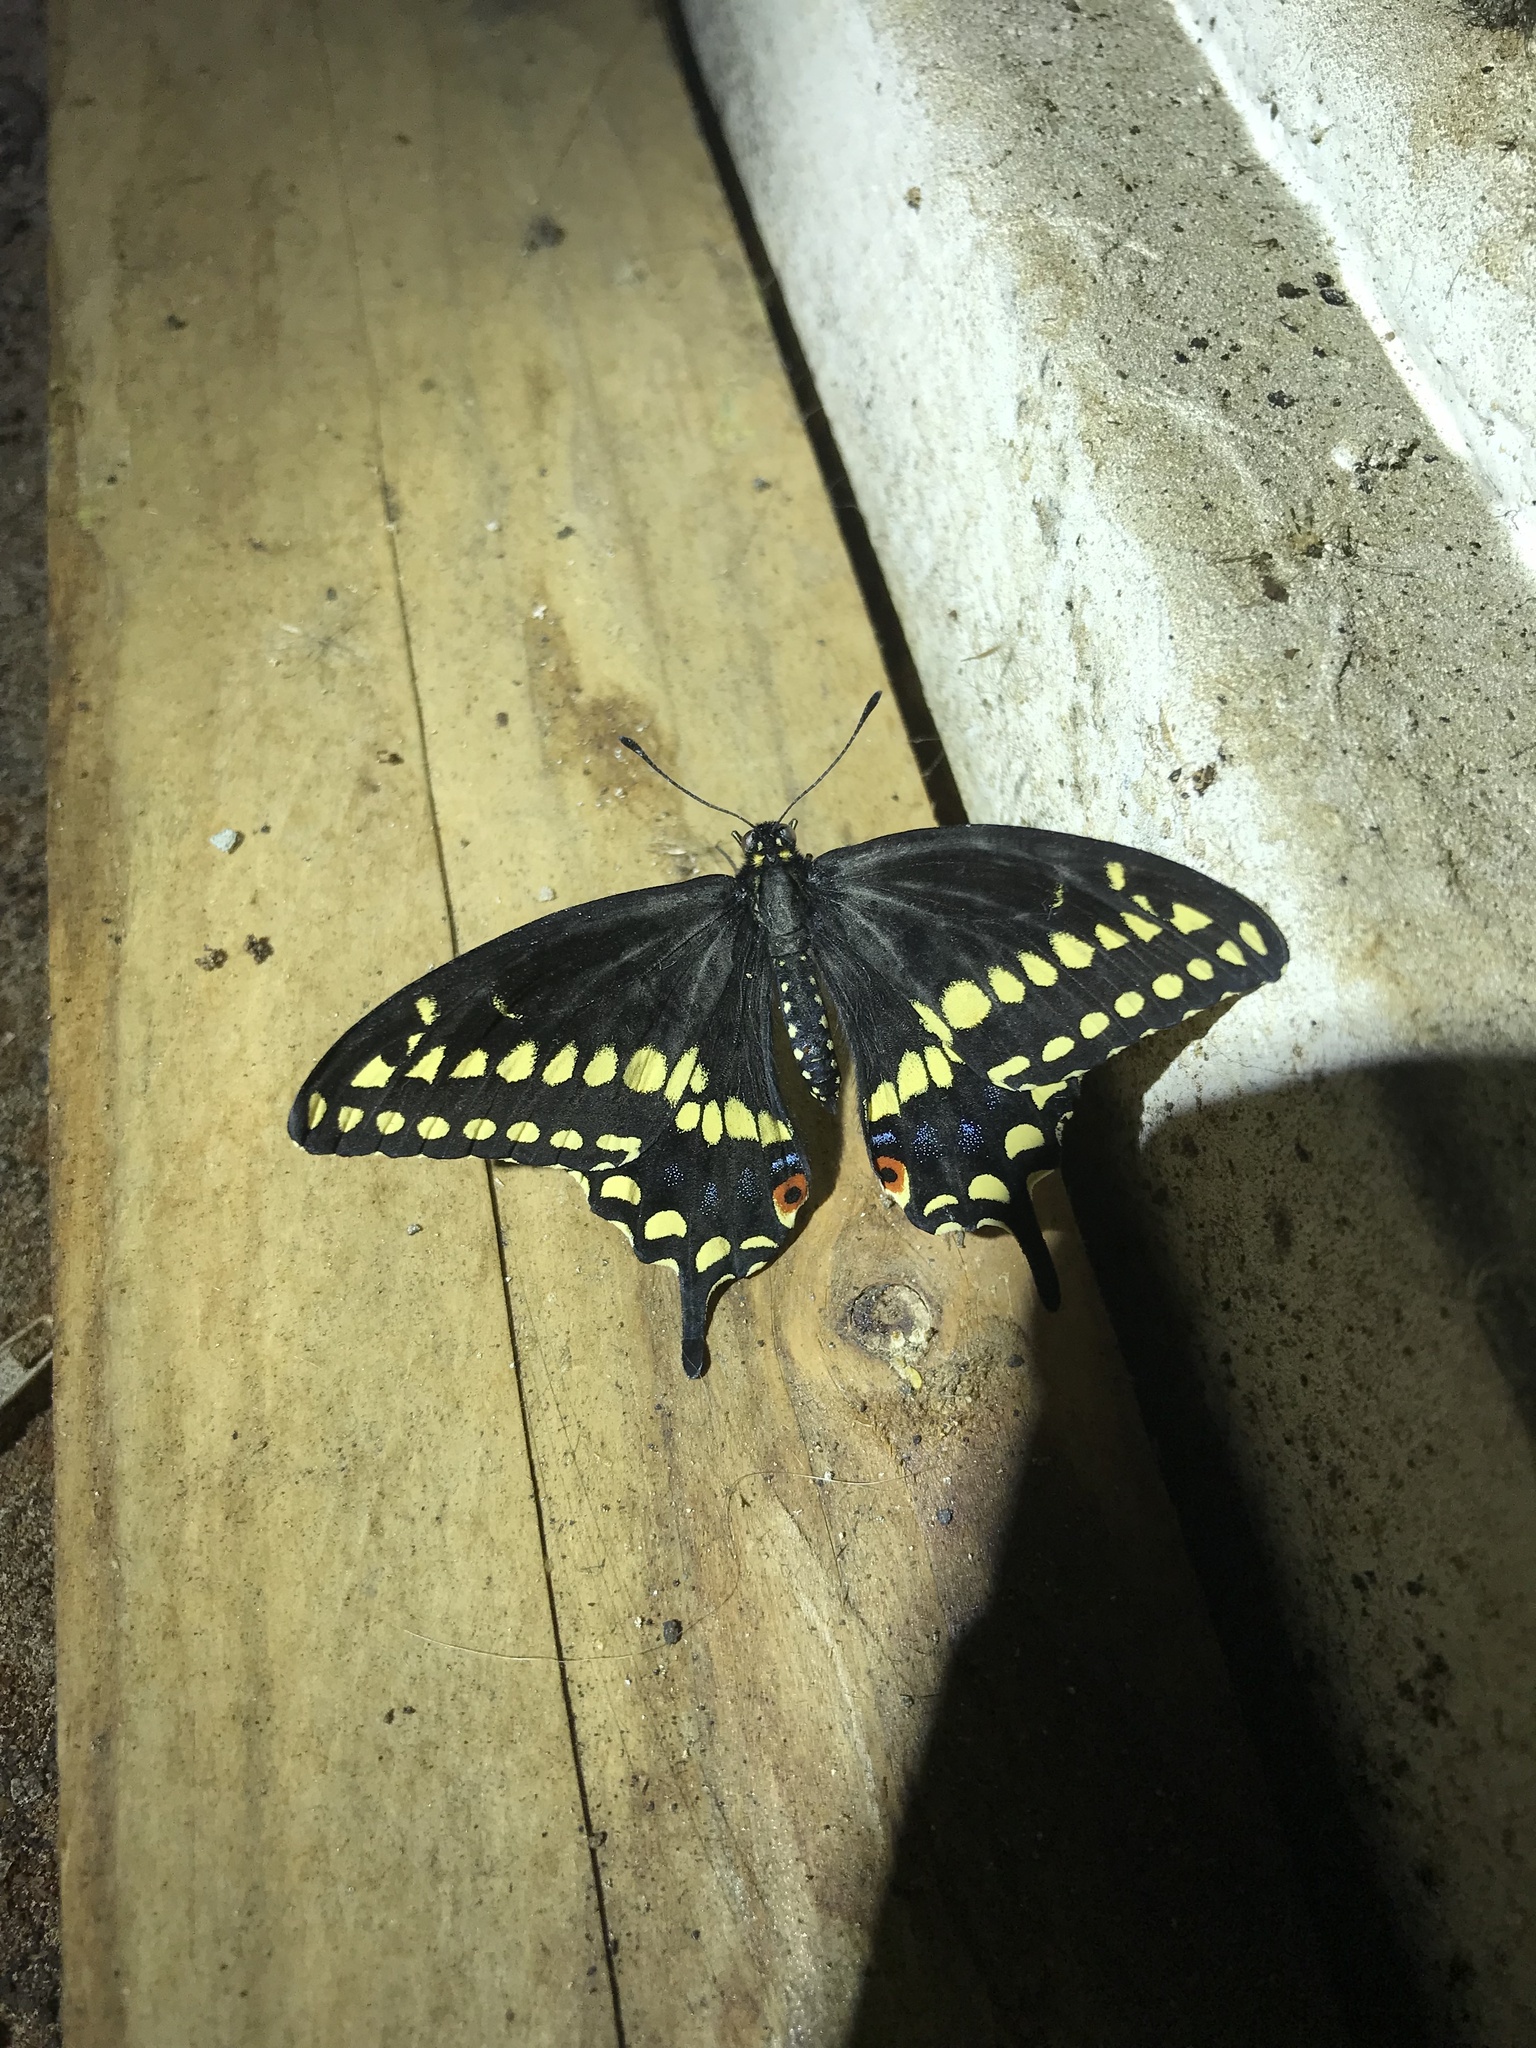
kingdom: Animalia
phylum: Arthropoda
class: Insecta
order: Lepidoptera
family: Papilionidae
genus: Papilio
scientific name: Papilio polyxenes
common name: Black swallowtail
